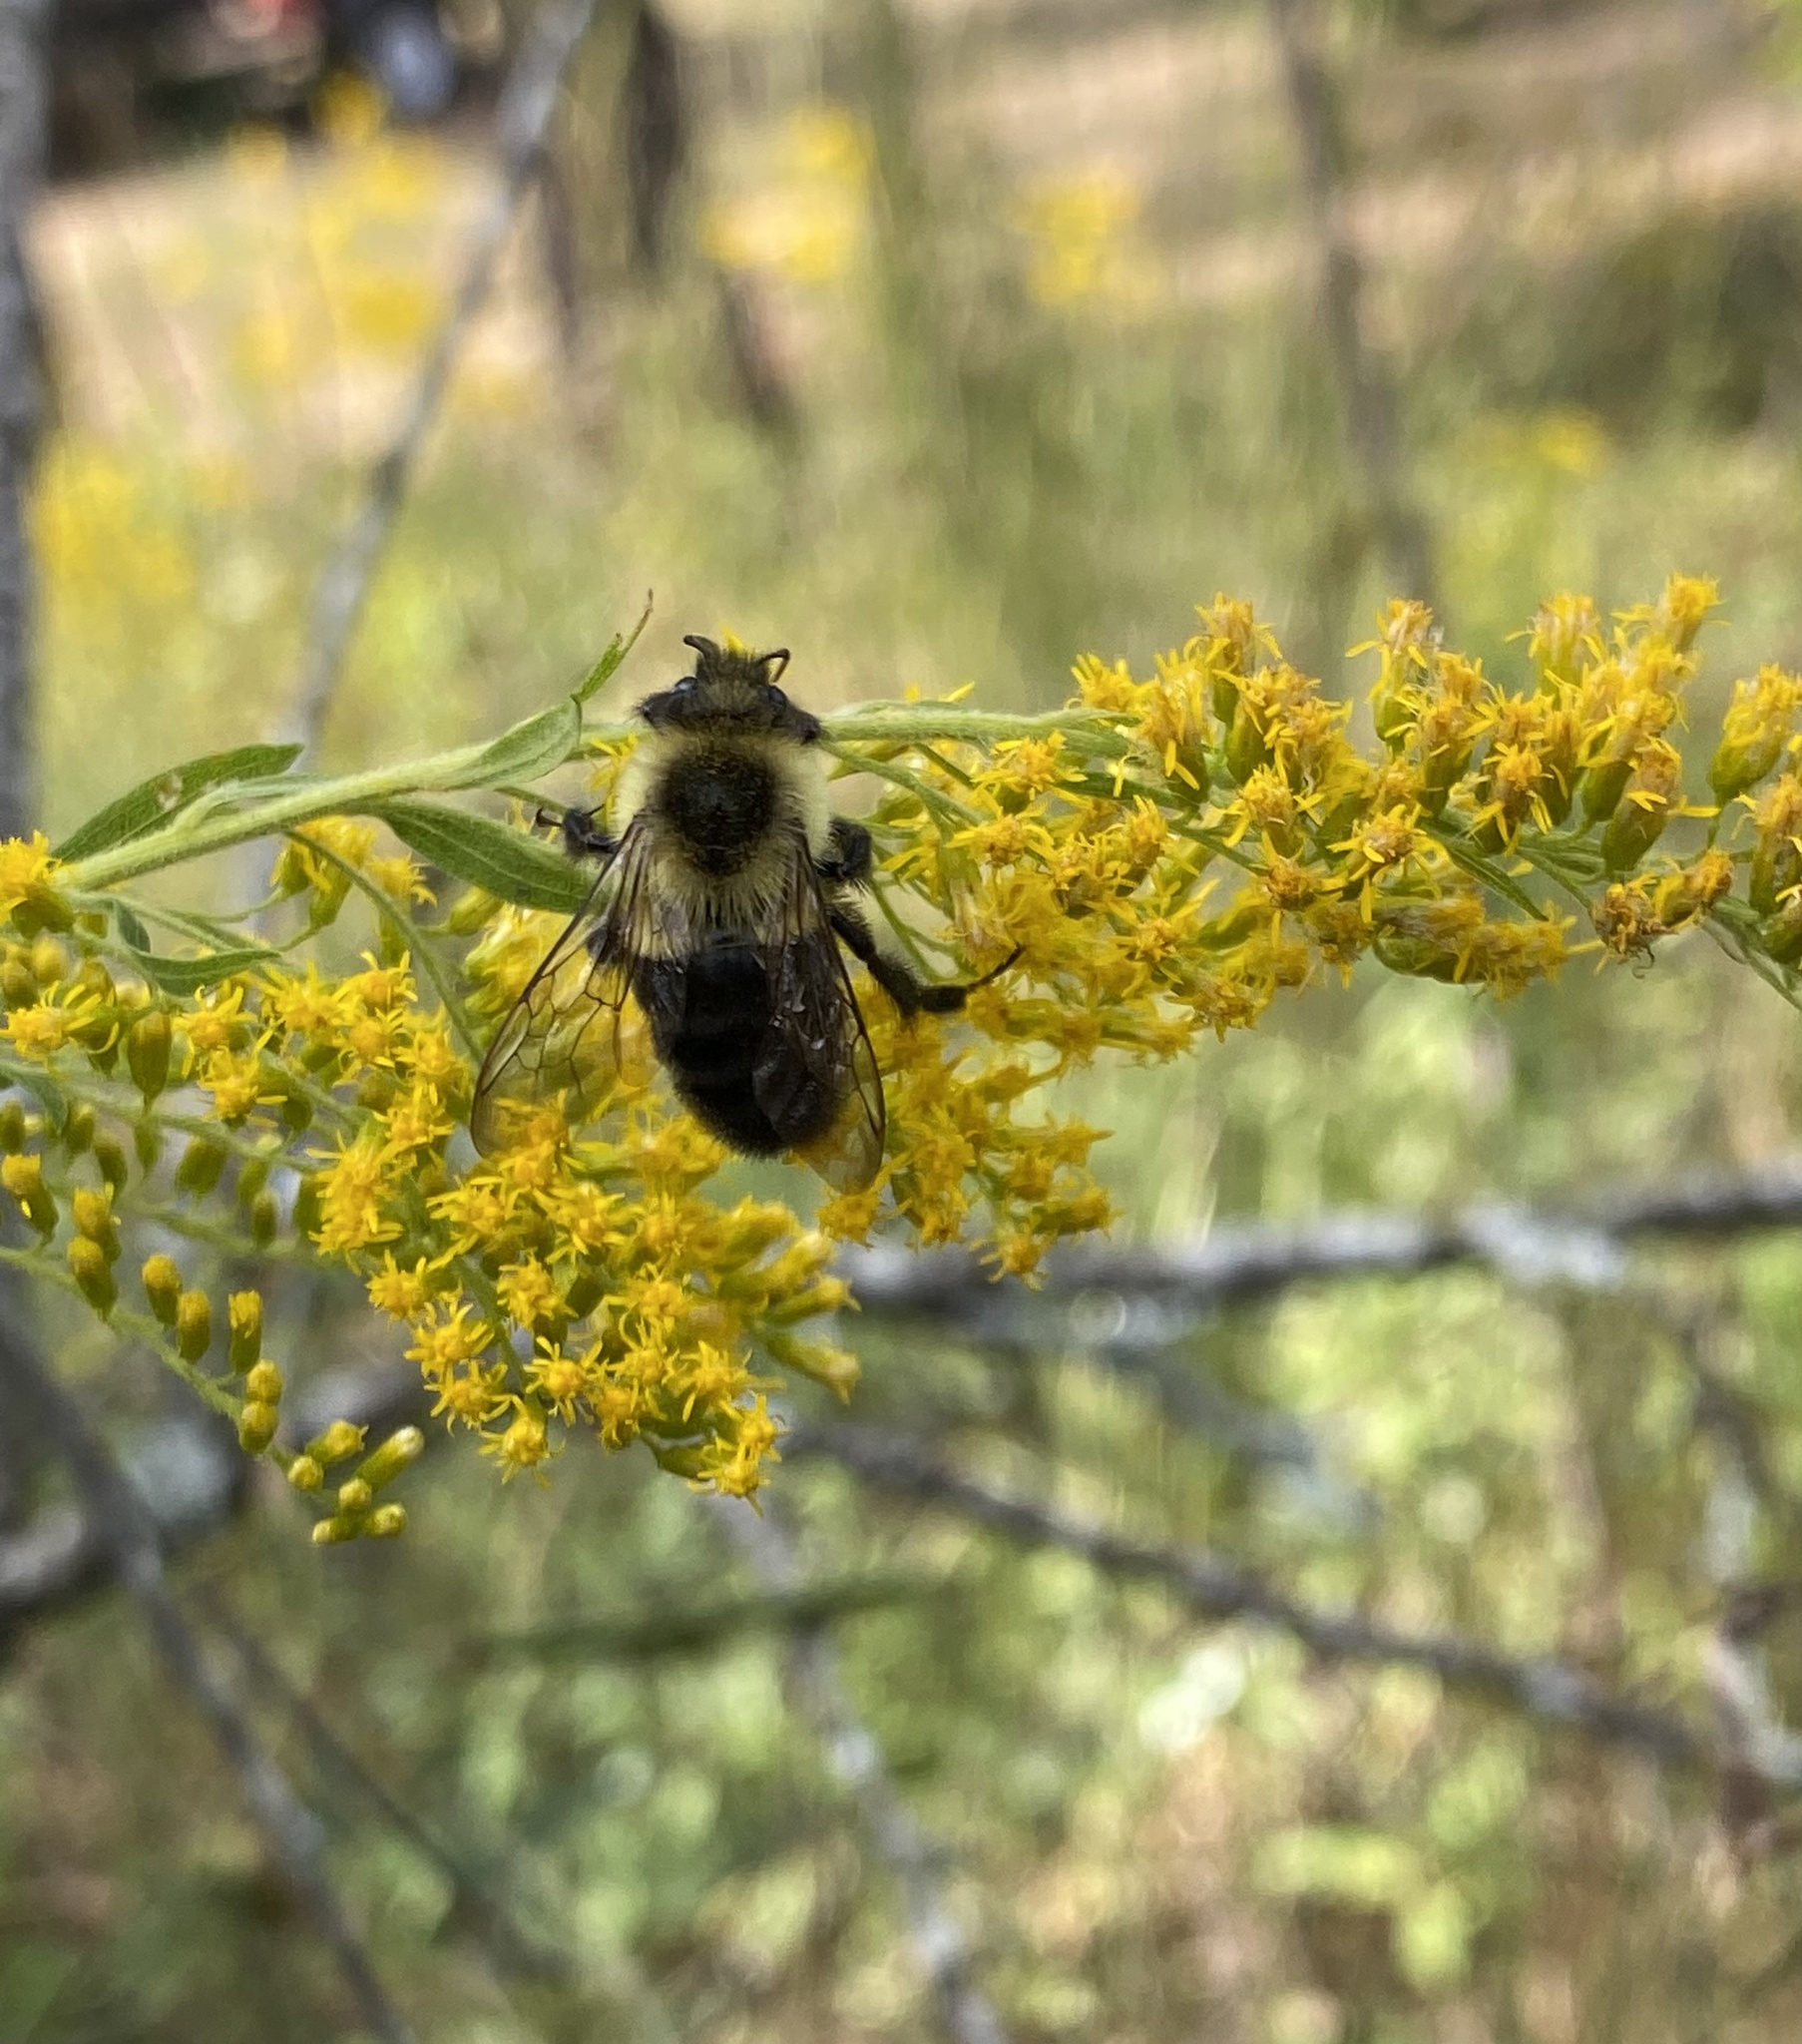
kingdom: Animalia
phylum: Arthropoda
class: Insecta
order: Hymenoptera
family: Apidae
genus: Bombus
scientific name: Bombus impatiens
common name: Common eastern bumble bee
